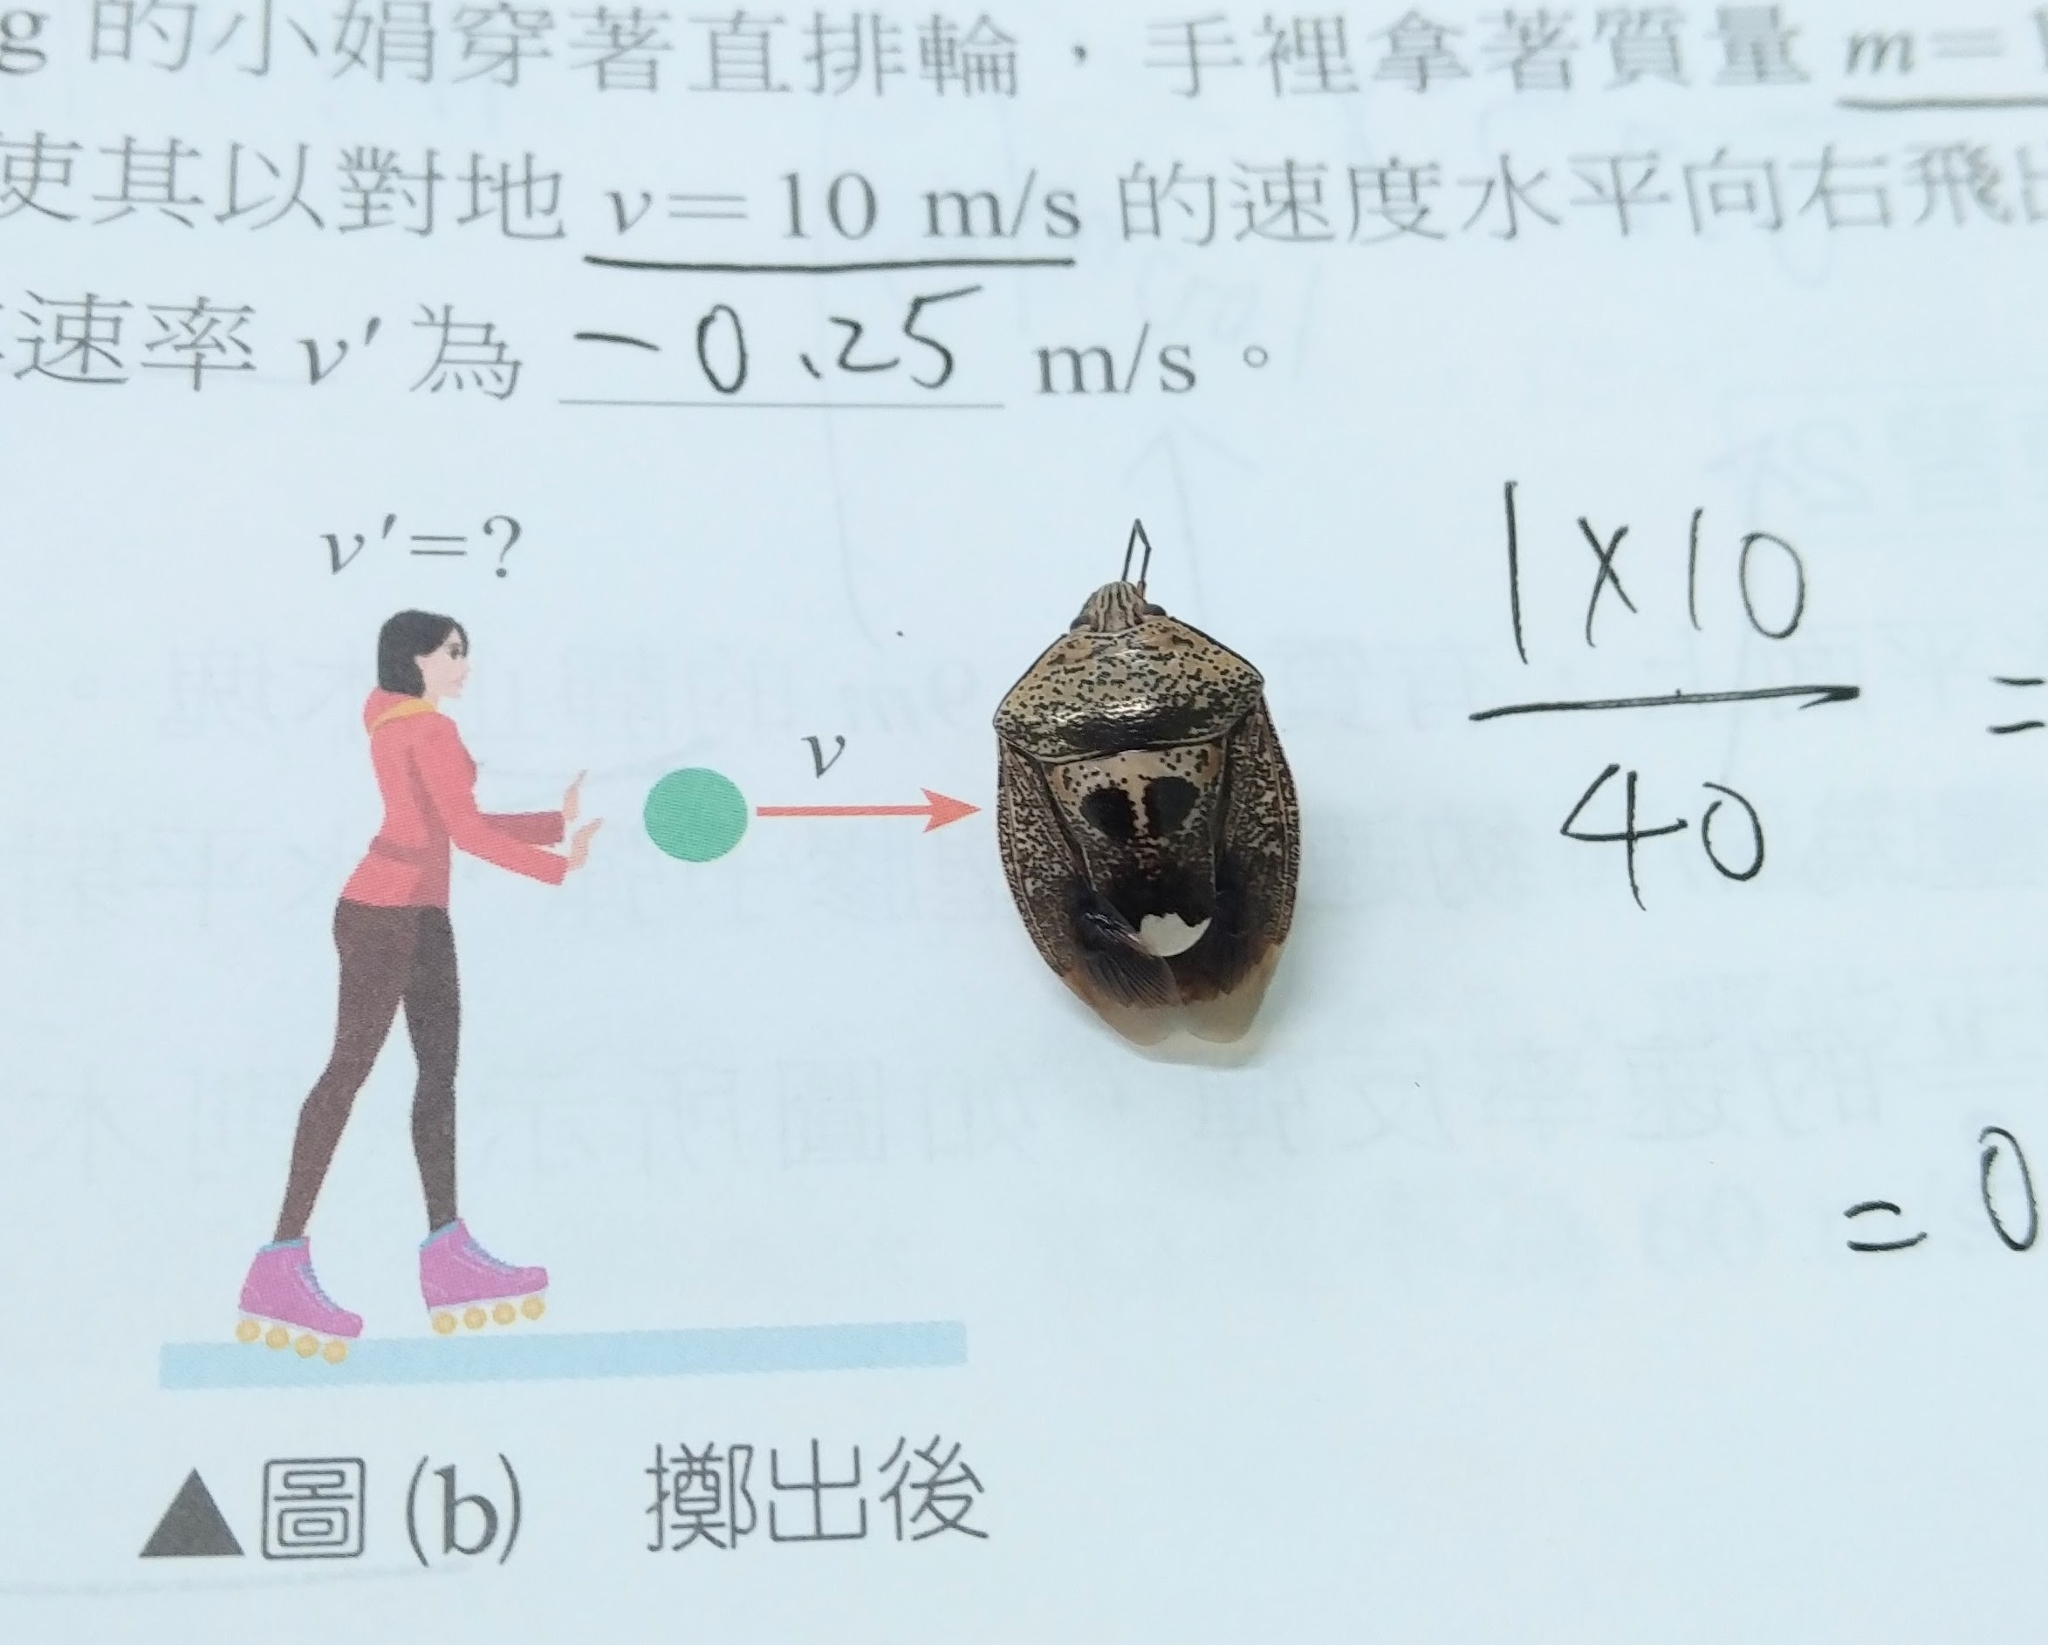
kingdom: Animalia
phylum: Arthropoda
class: Insecta
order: Hemiptera
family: Pentatomidae
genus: Axiagastus
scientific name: Axiagastus rosmarus
